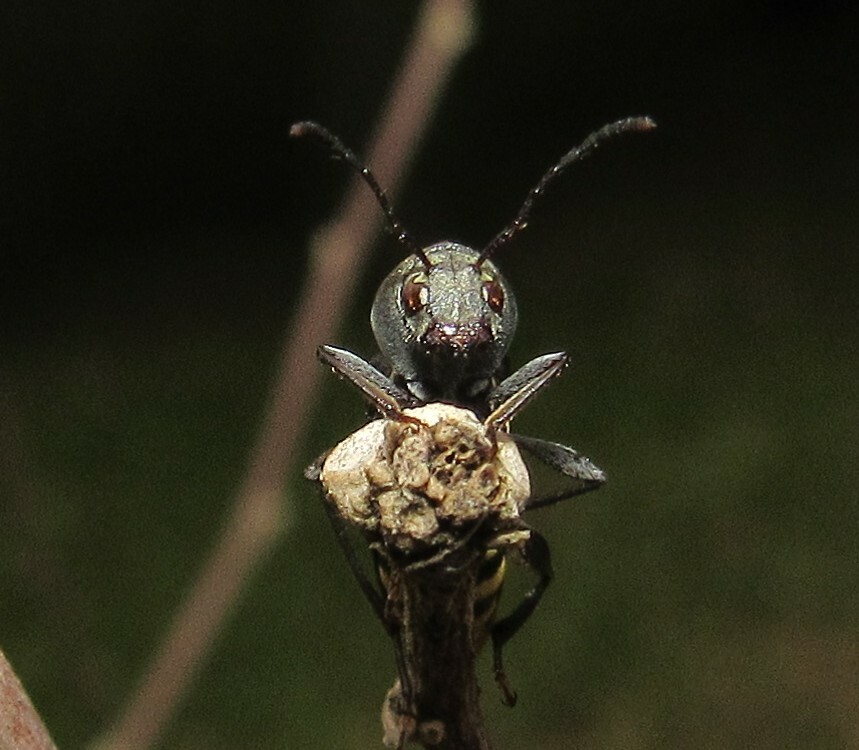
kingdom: Animalia
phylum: Arthropoda
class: Insecta
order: Coleoptera
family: Cerambycidae
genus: Mecometopus
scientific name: Mecometopus centurio
